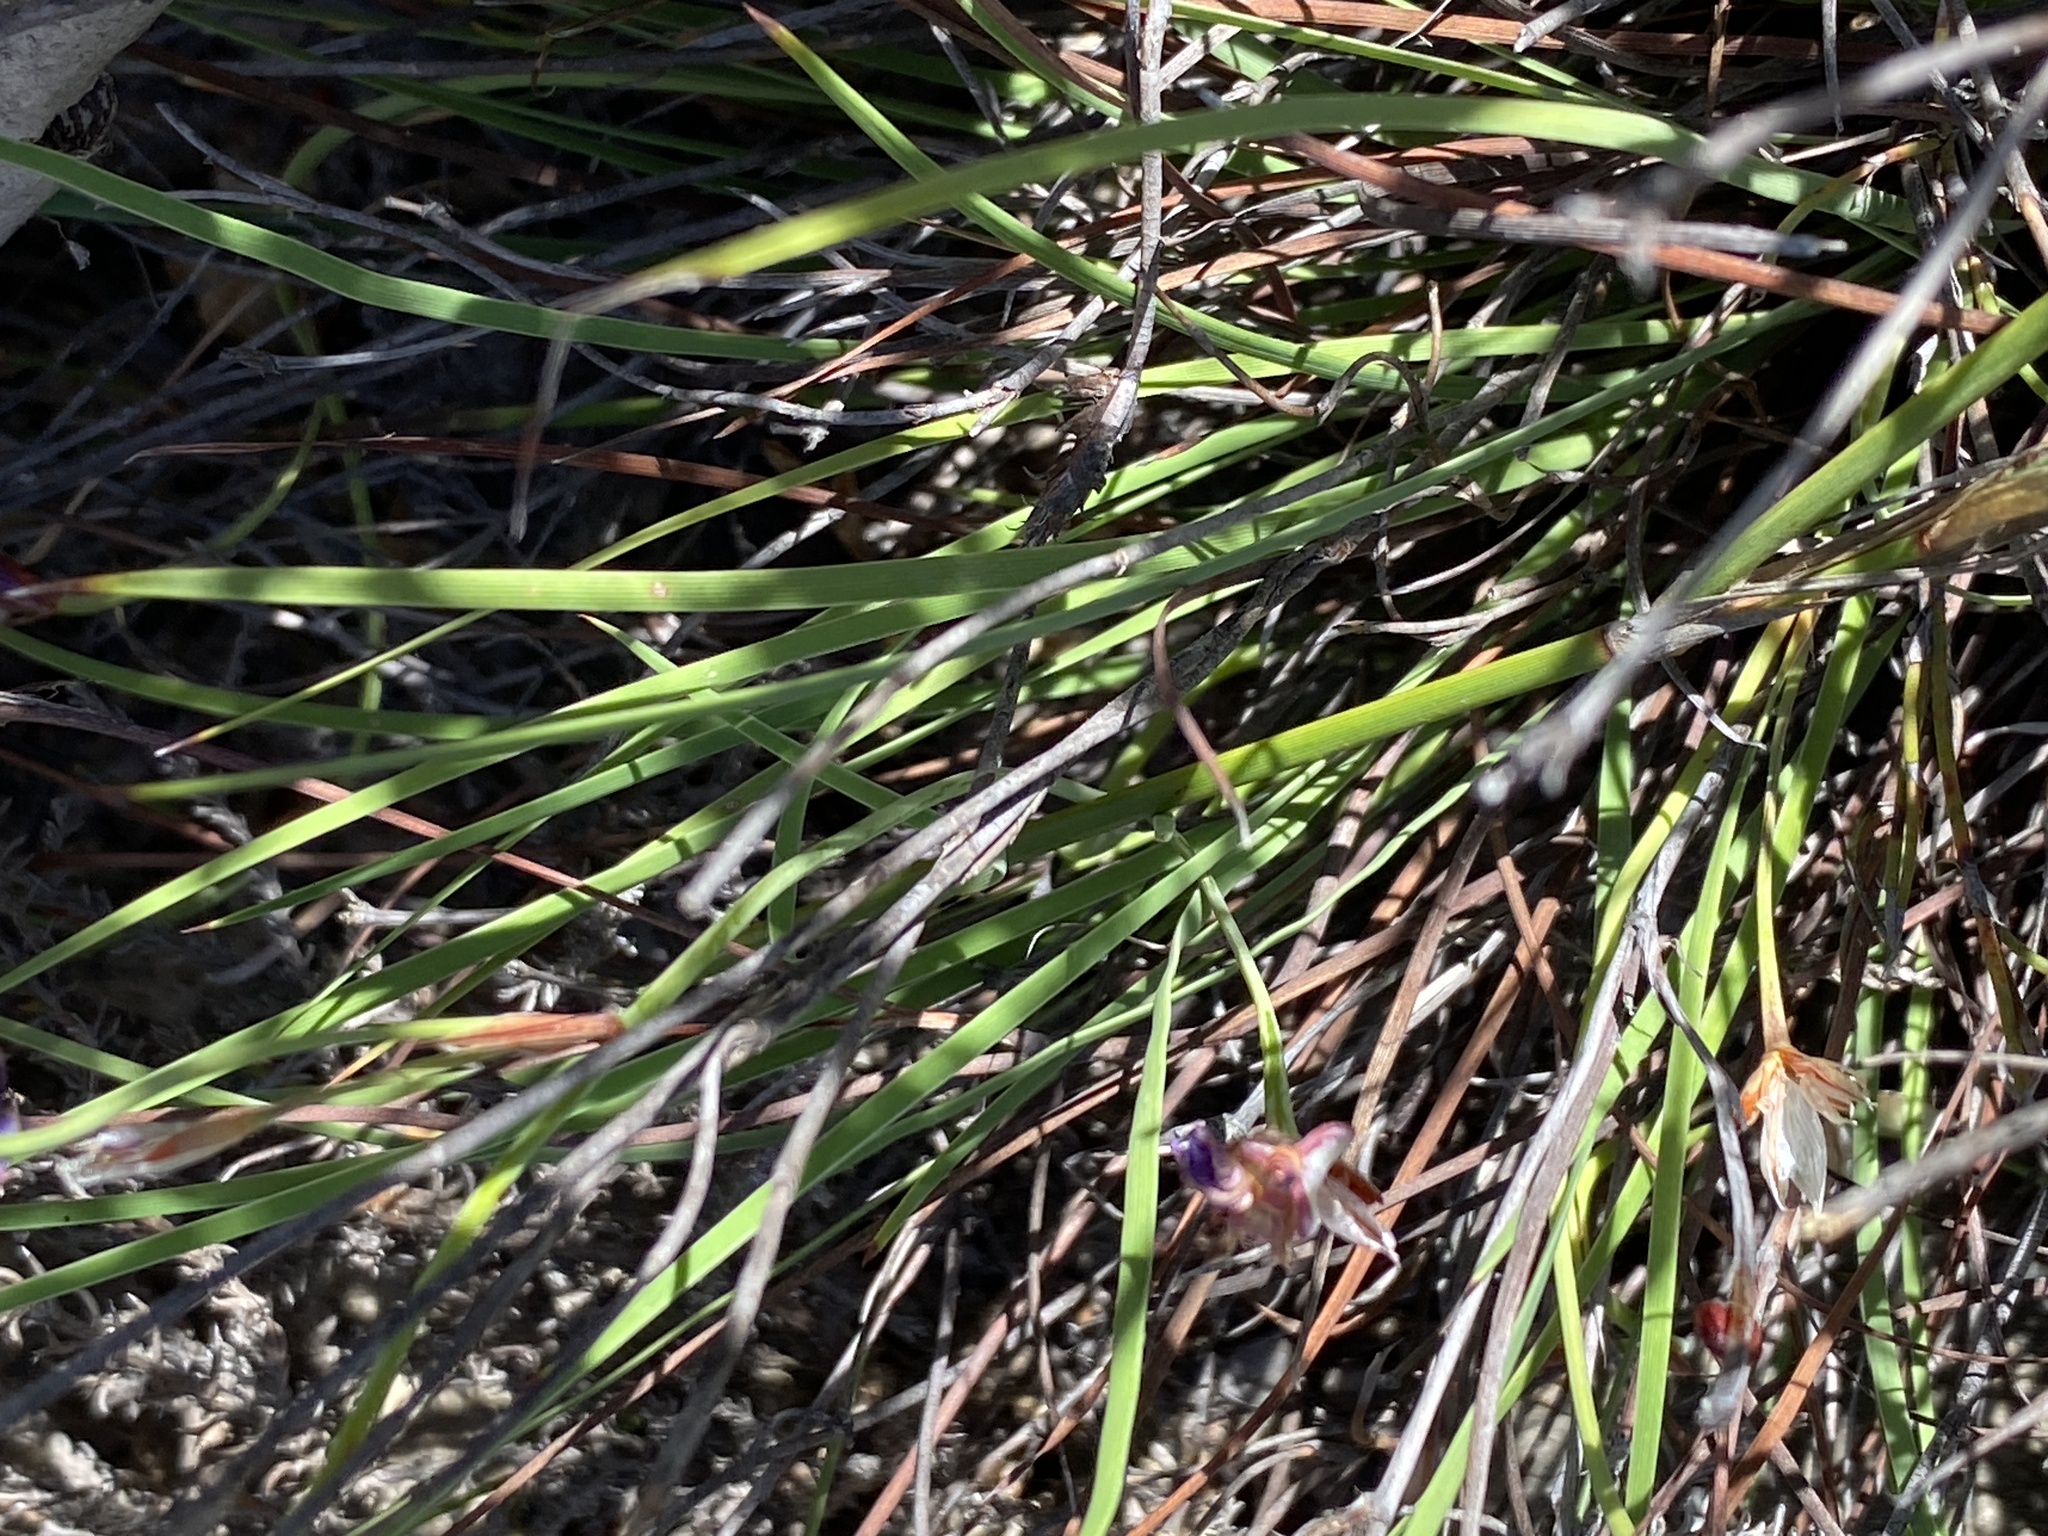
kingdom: Plantae
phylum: Tracheophyta
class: Liliopsida
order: Asparagales
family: Iridaceae
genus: Aristea
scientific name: Aristea dichotoma
